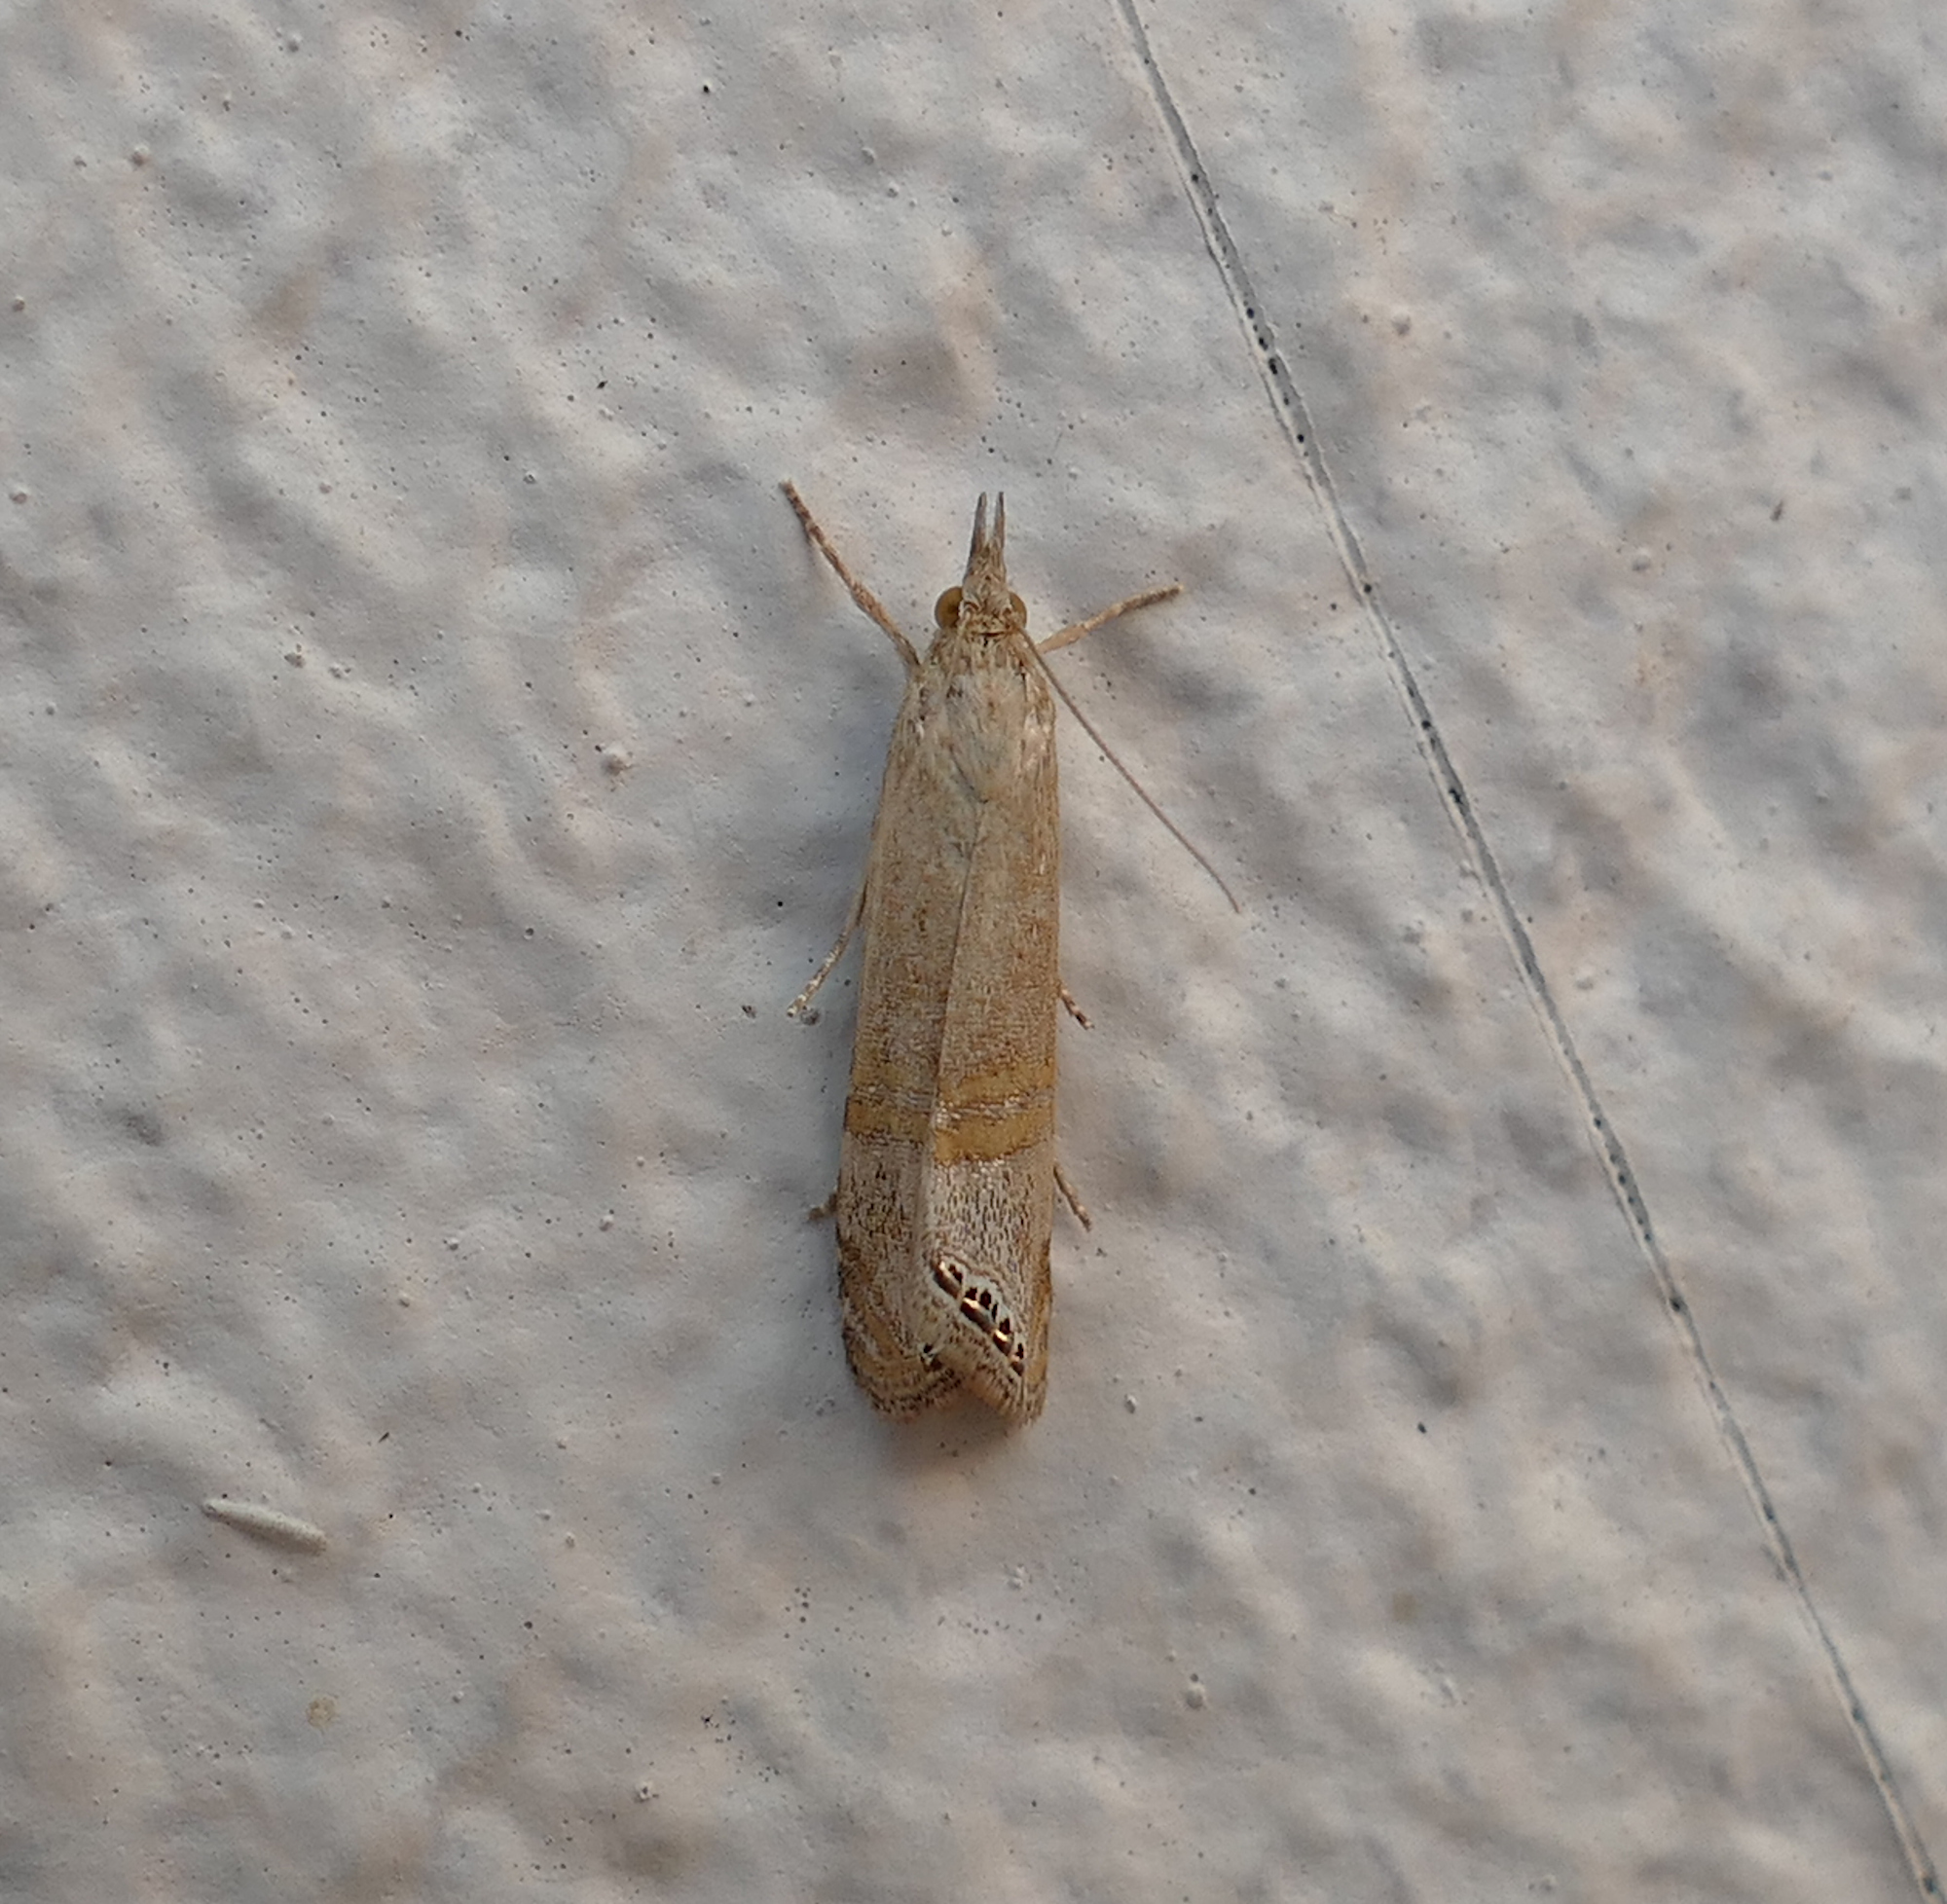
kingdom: Animalia
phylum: Arthropoda
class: Insecta
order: Lepidoptera
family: Crambidae
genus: Euchromius
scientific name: Euchromius ocellea
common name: Necklace veneer moth
